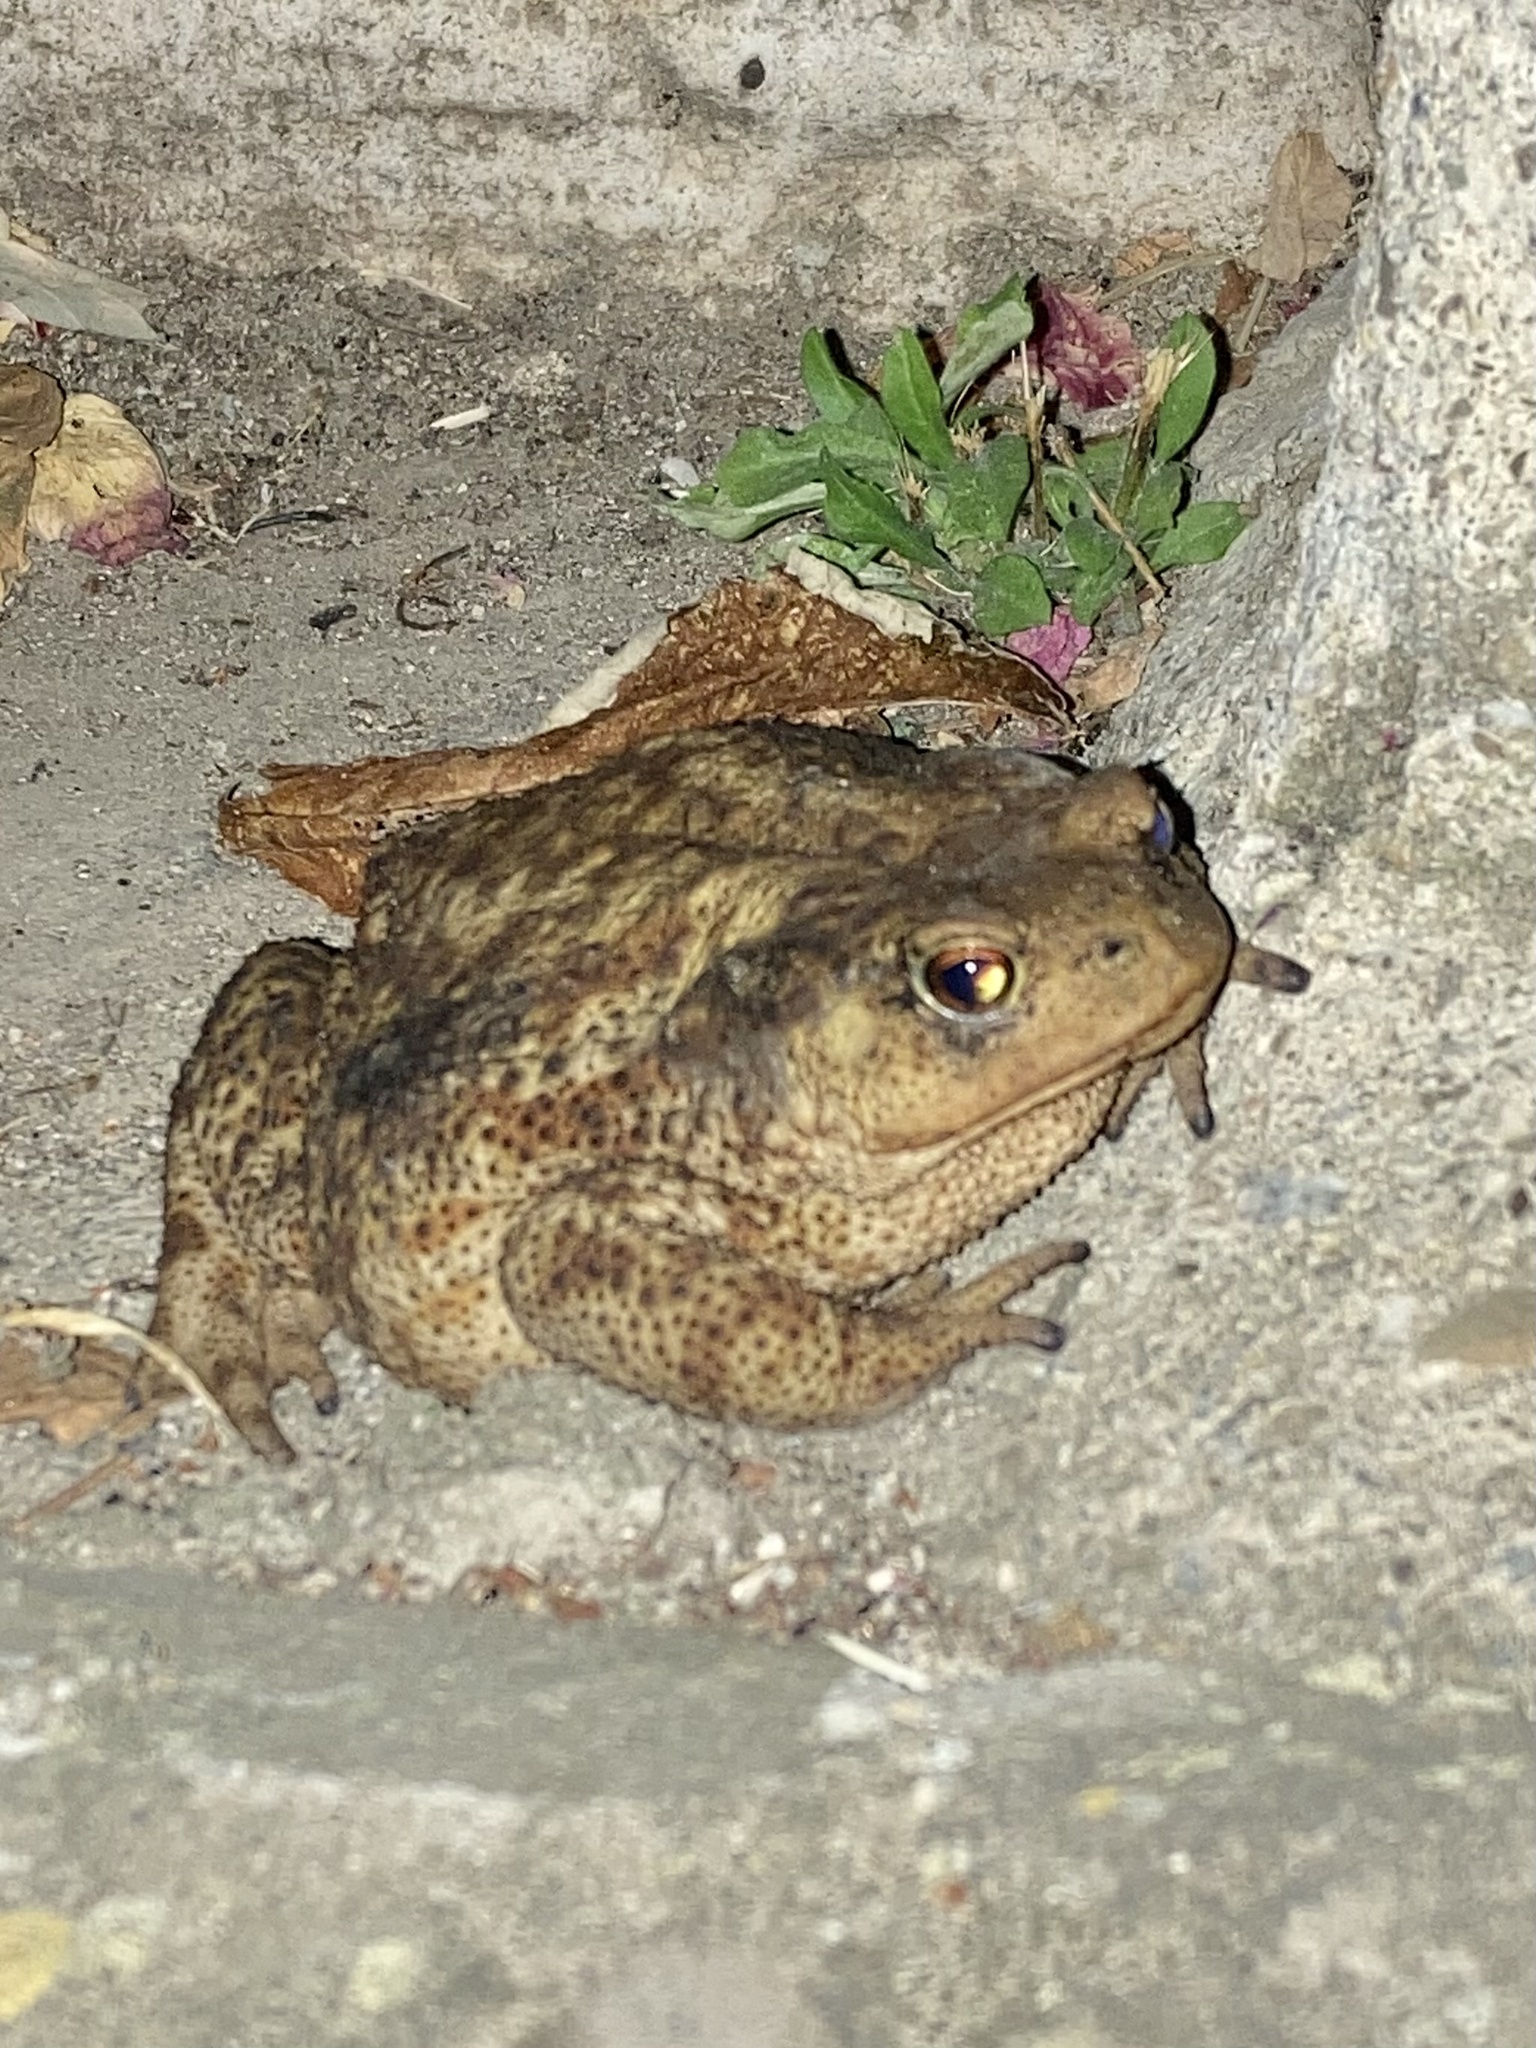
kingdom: Animalia
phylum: Chordata
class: Amphibia
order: Anura
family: Bufonidae
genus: Bufo
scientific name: Bufo bufo
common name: Common toad
